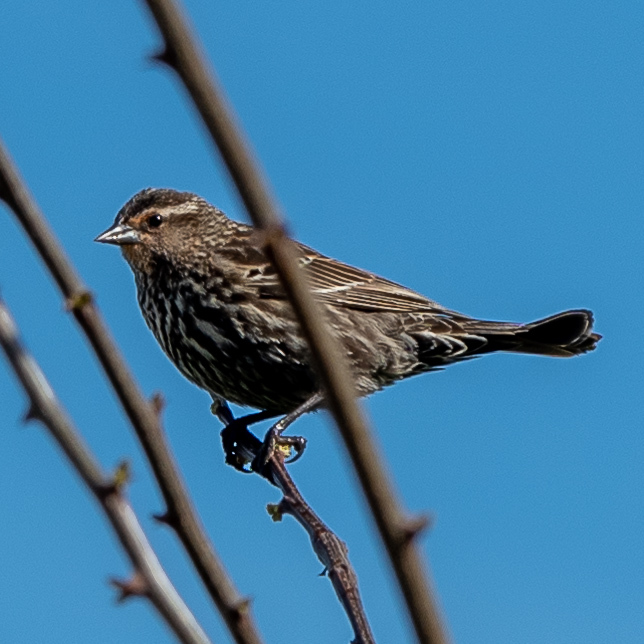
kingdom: Animalia
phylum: Chordata
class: Aves
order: Passeriformes
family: Icteridae
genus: Agelaius
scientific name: Agelaius phoeniceus
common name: Red-winged blackbird
